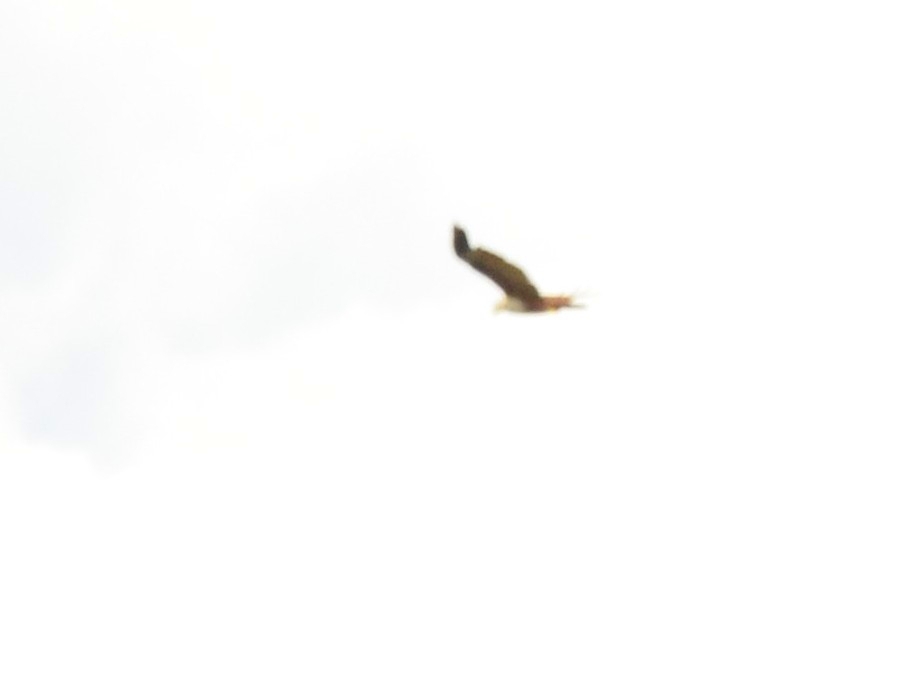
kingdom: Animalia
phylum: Chordata
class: Aves
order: Accipitriformes
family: Accipitridae
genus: Haliastur
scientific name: Haliastur indus
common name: Brahminy kite
